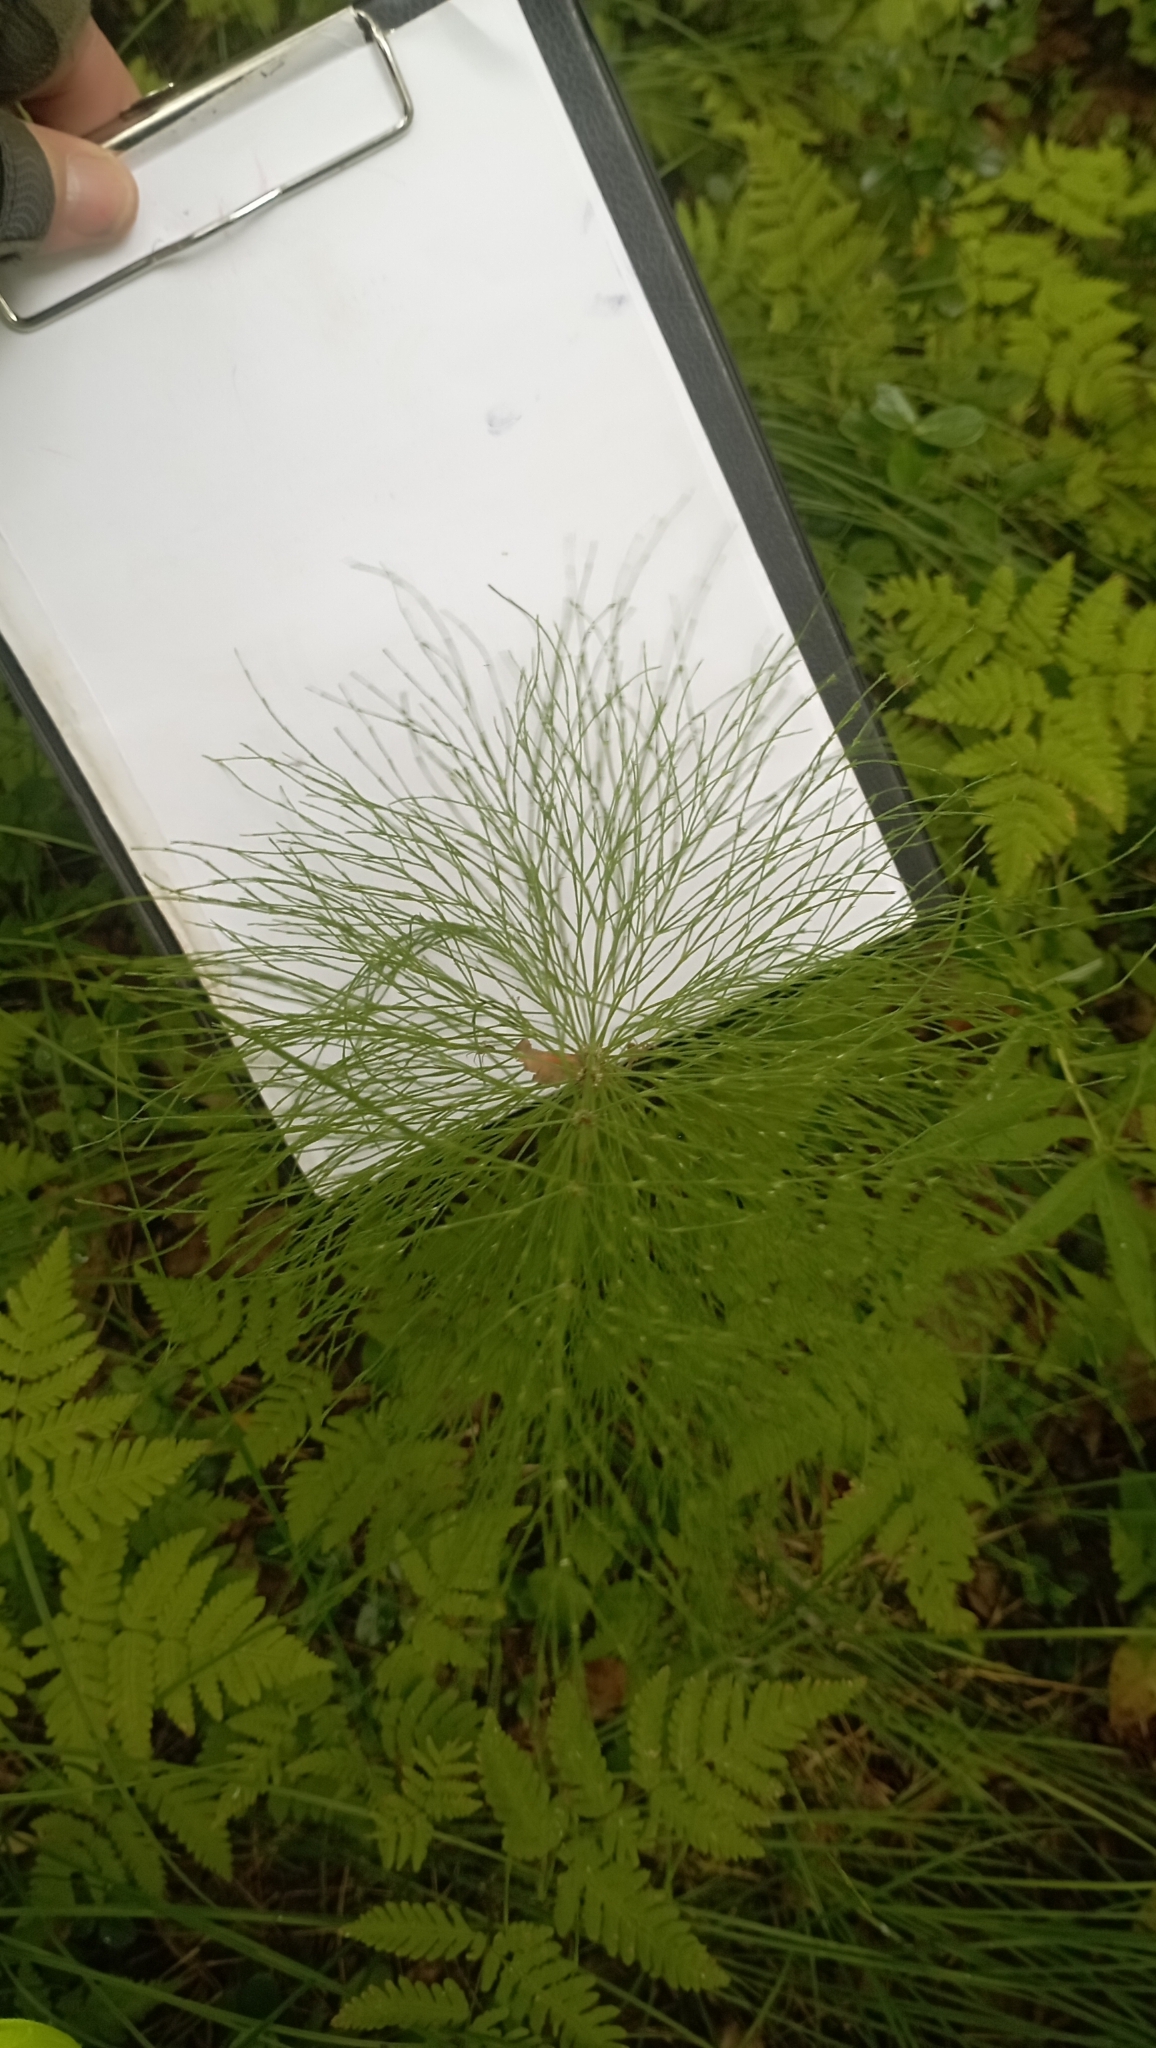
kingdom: Plantae
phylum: Tracheophyta
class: Polypodiopsida
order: Equisetales
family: Equisetaceae
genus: Equisetum
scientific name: Equisetum sylvaticum
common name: Wood horsetail
